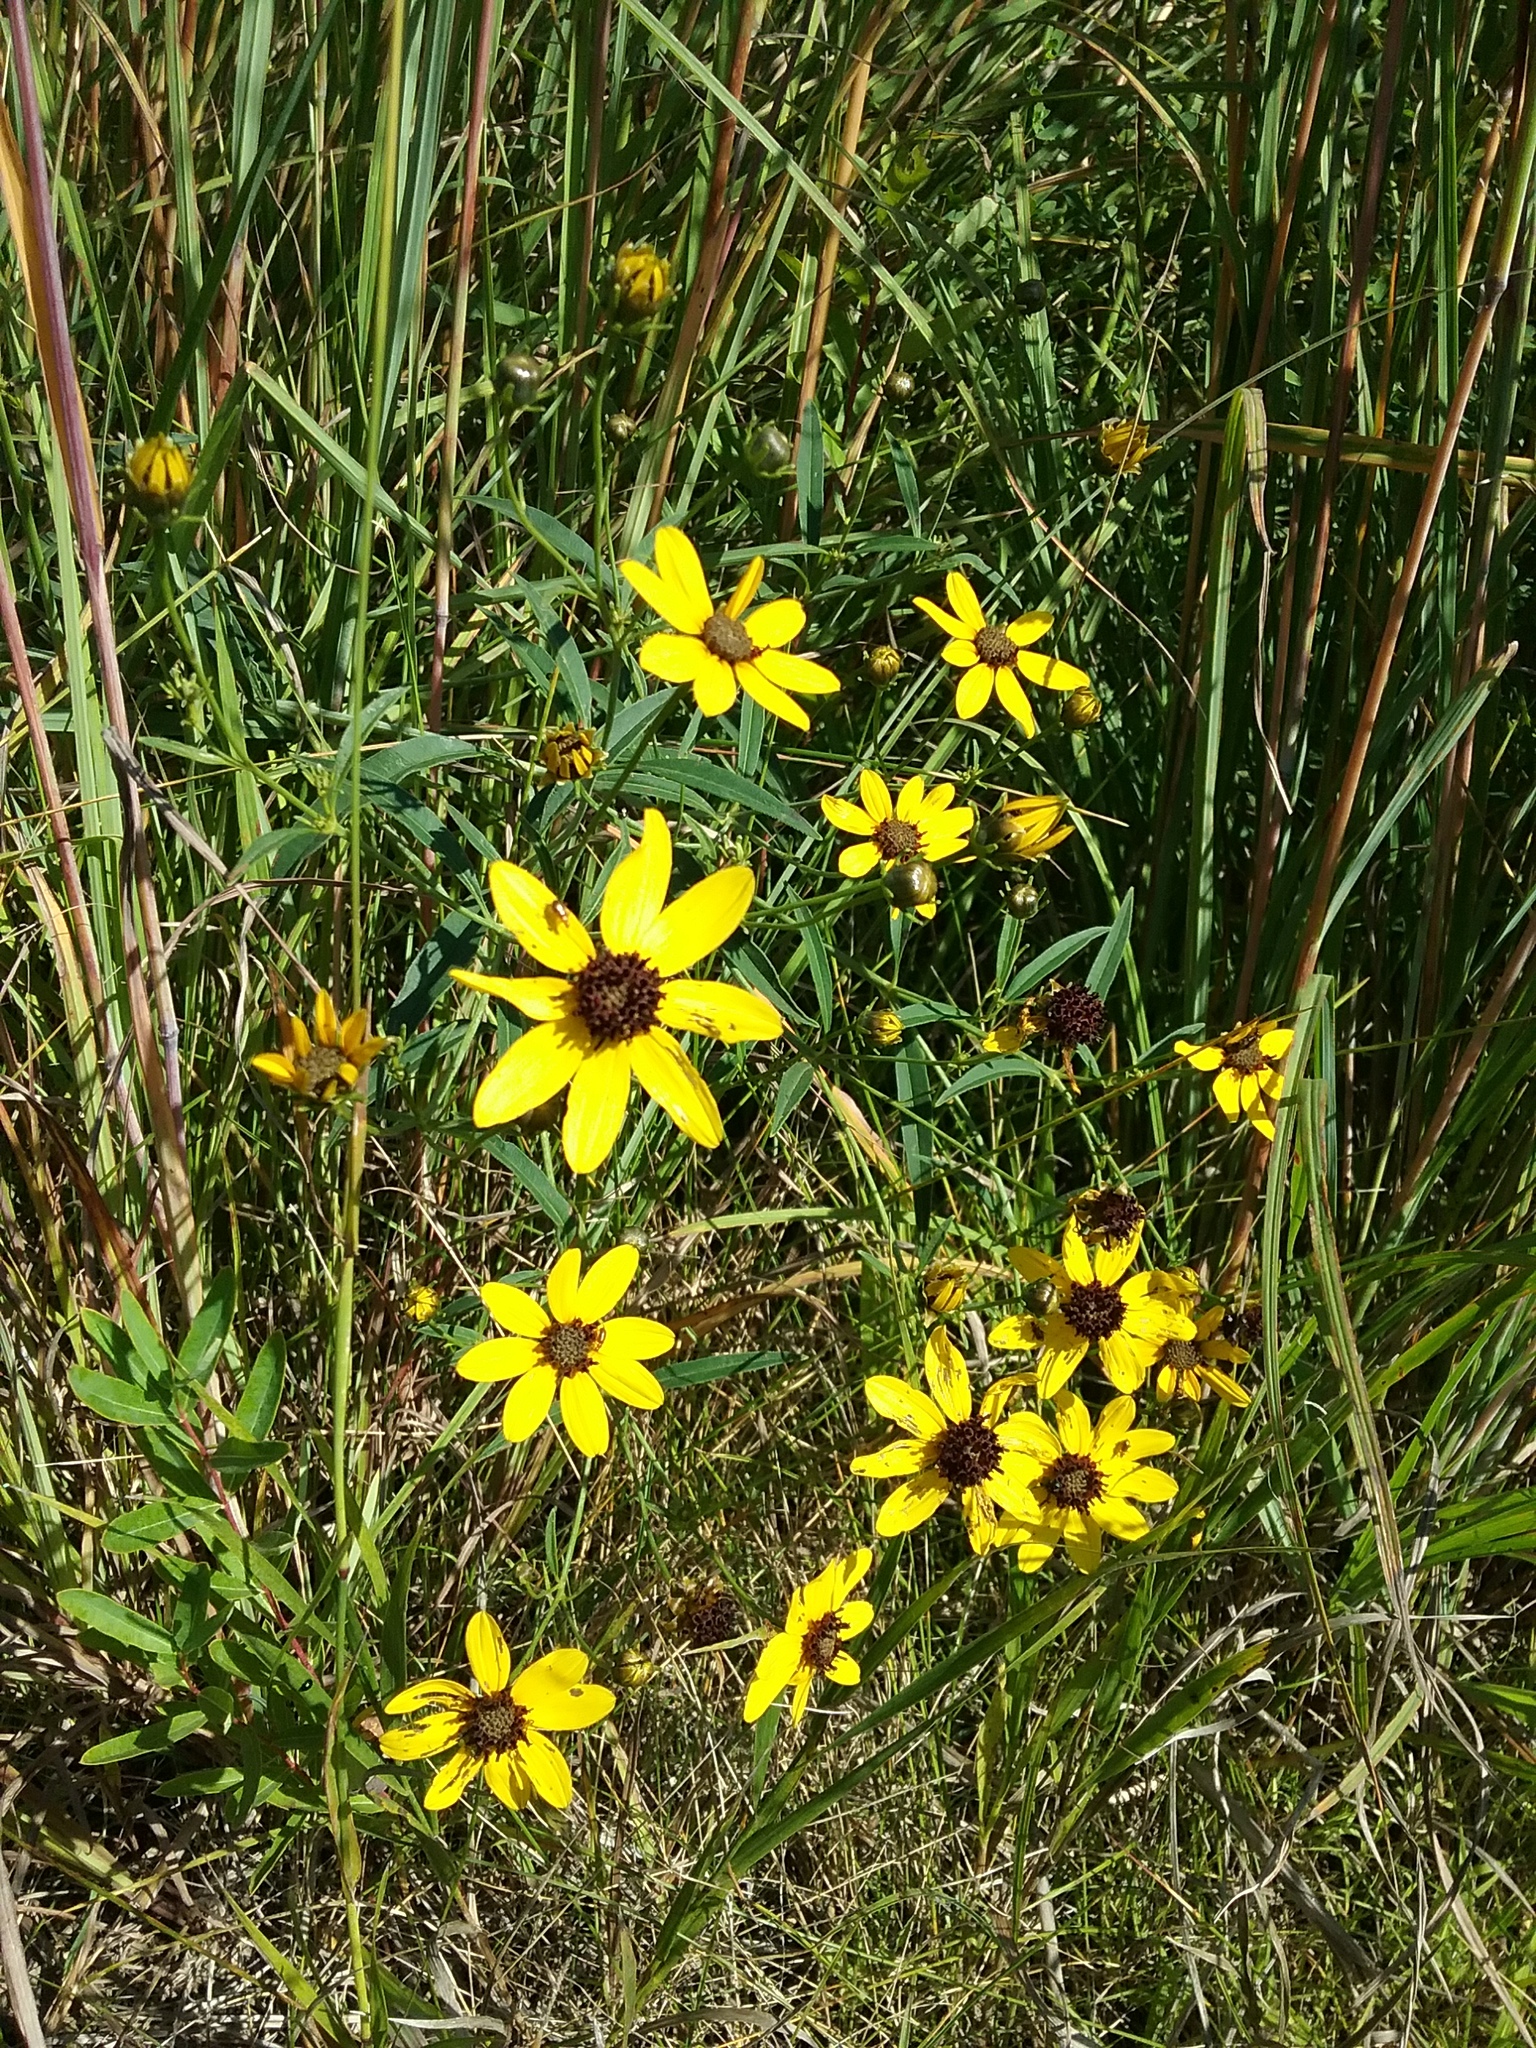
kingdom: Plantae
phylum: Tracheophyta
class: Magnoliopsida
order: Asterales
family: Asteraceae
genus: Coreopsis
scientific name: Coreopsis tripteris
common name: Tall coreopsis
